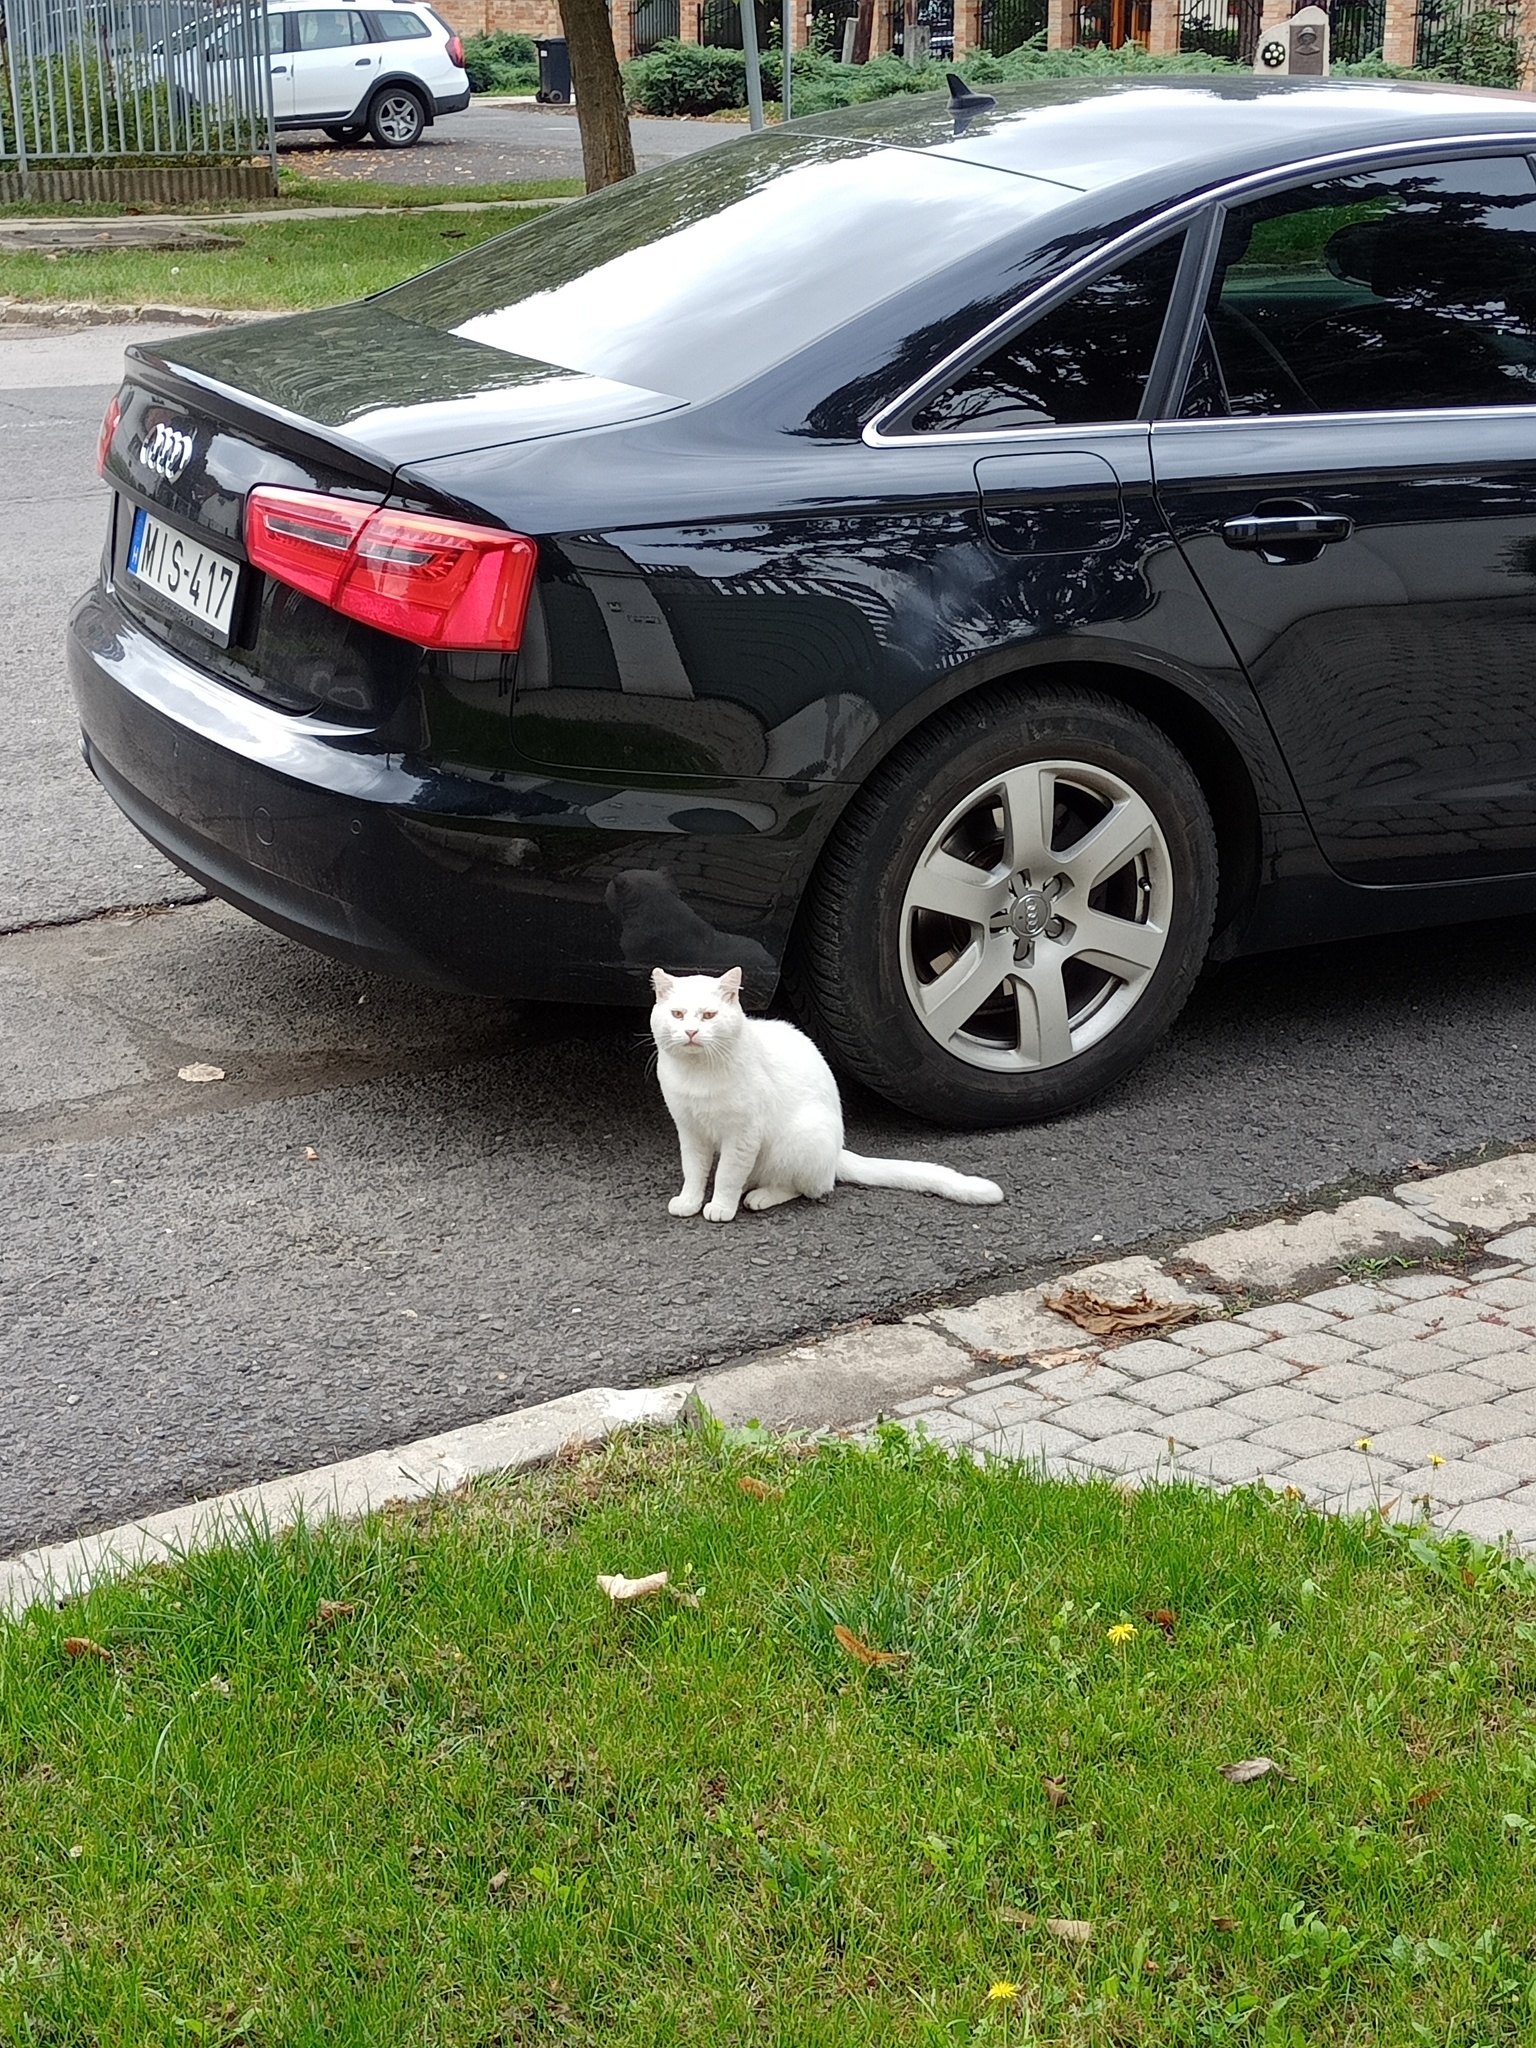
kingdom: Animalia
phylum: Chordata
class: Mammalia
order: Carnivora
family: Felidae
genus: Felis
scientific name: Felis catus
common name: Domestic cat
